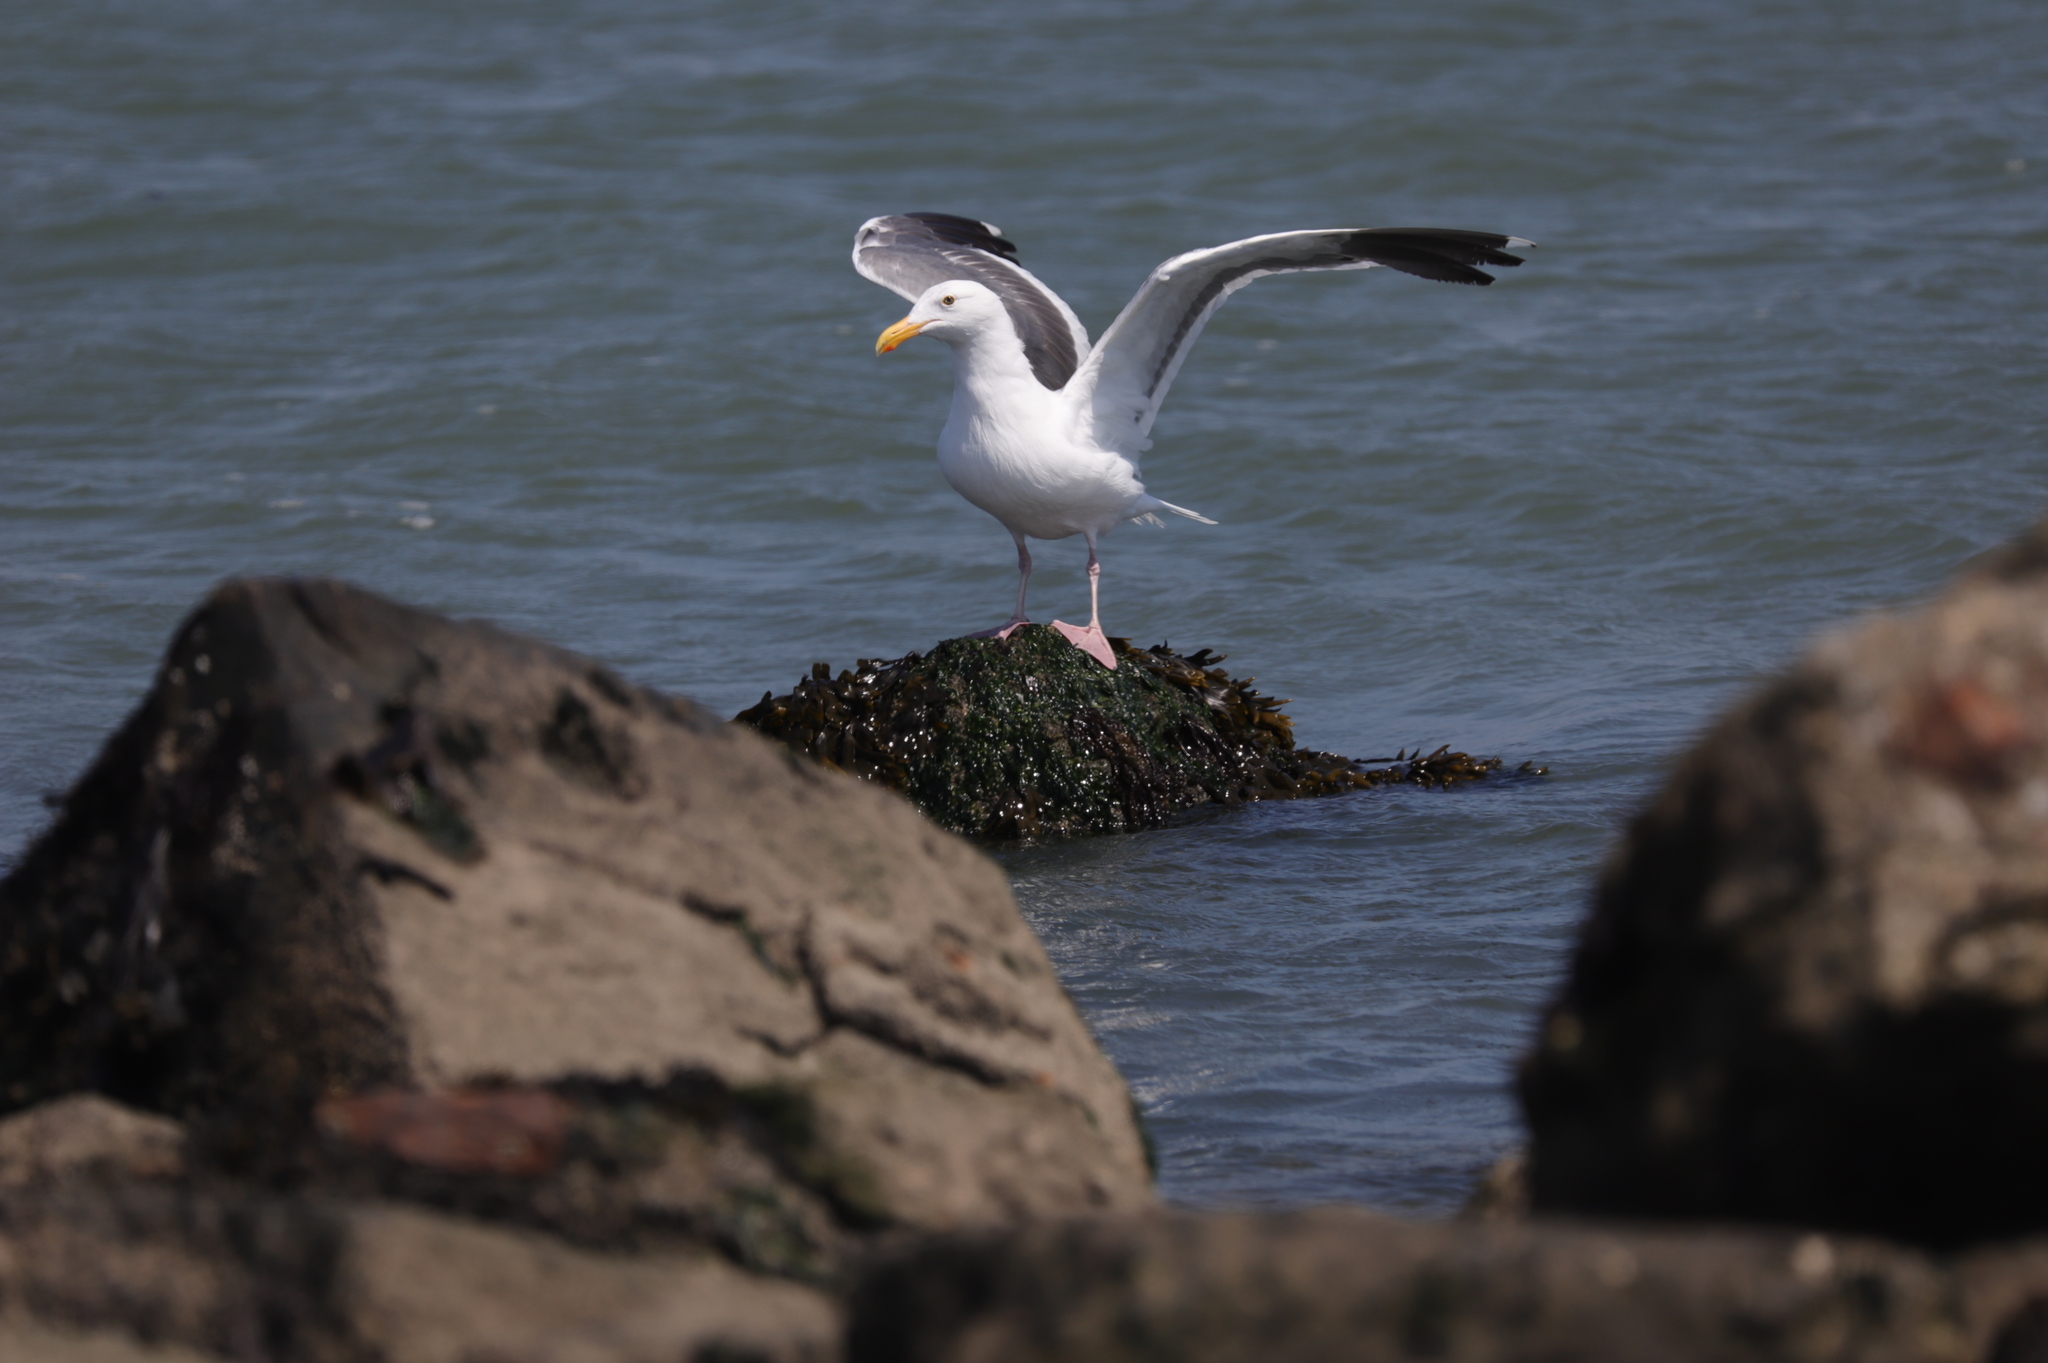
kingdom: Animalia
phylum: Chordata
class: Aves
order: Charadriiformes
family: Laridae
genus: Larus
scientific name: Larus occidentalis
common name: Western gull
